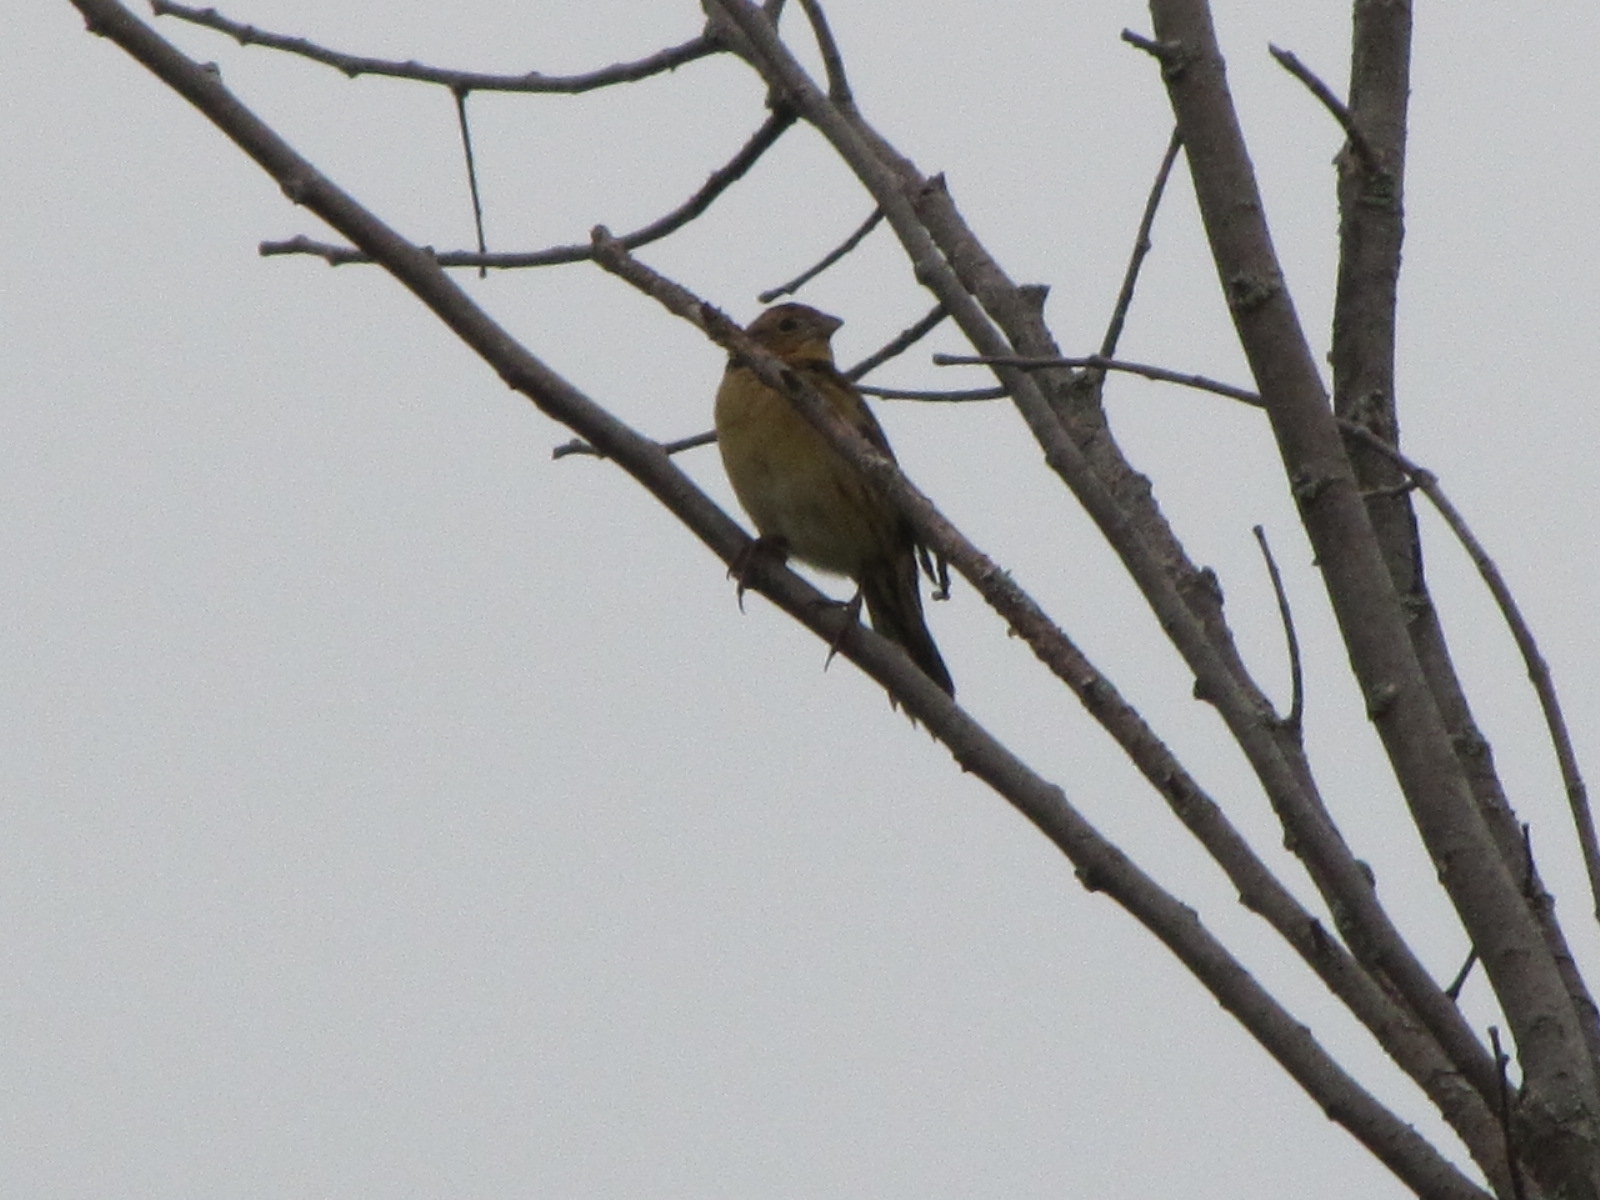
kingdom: Animalia
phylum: Chordata
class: Aves
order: Passeriformes
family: Icteridae
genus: Dolichonyx
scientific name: Dolichonyx oryzivorus
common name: Bobolink
